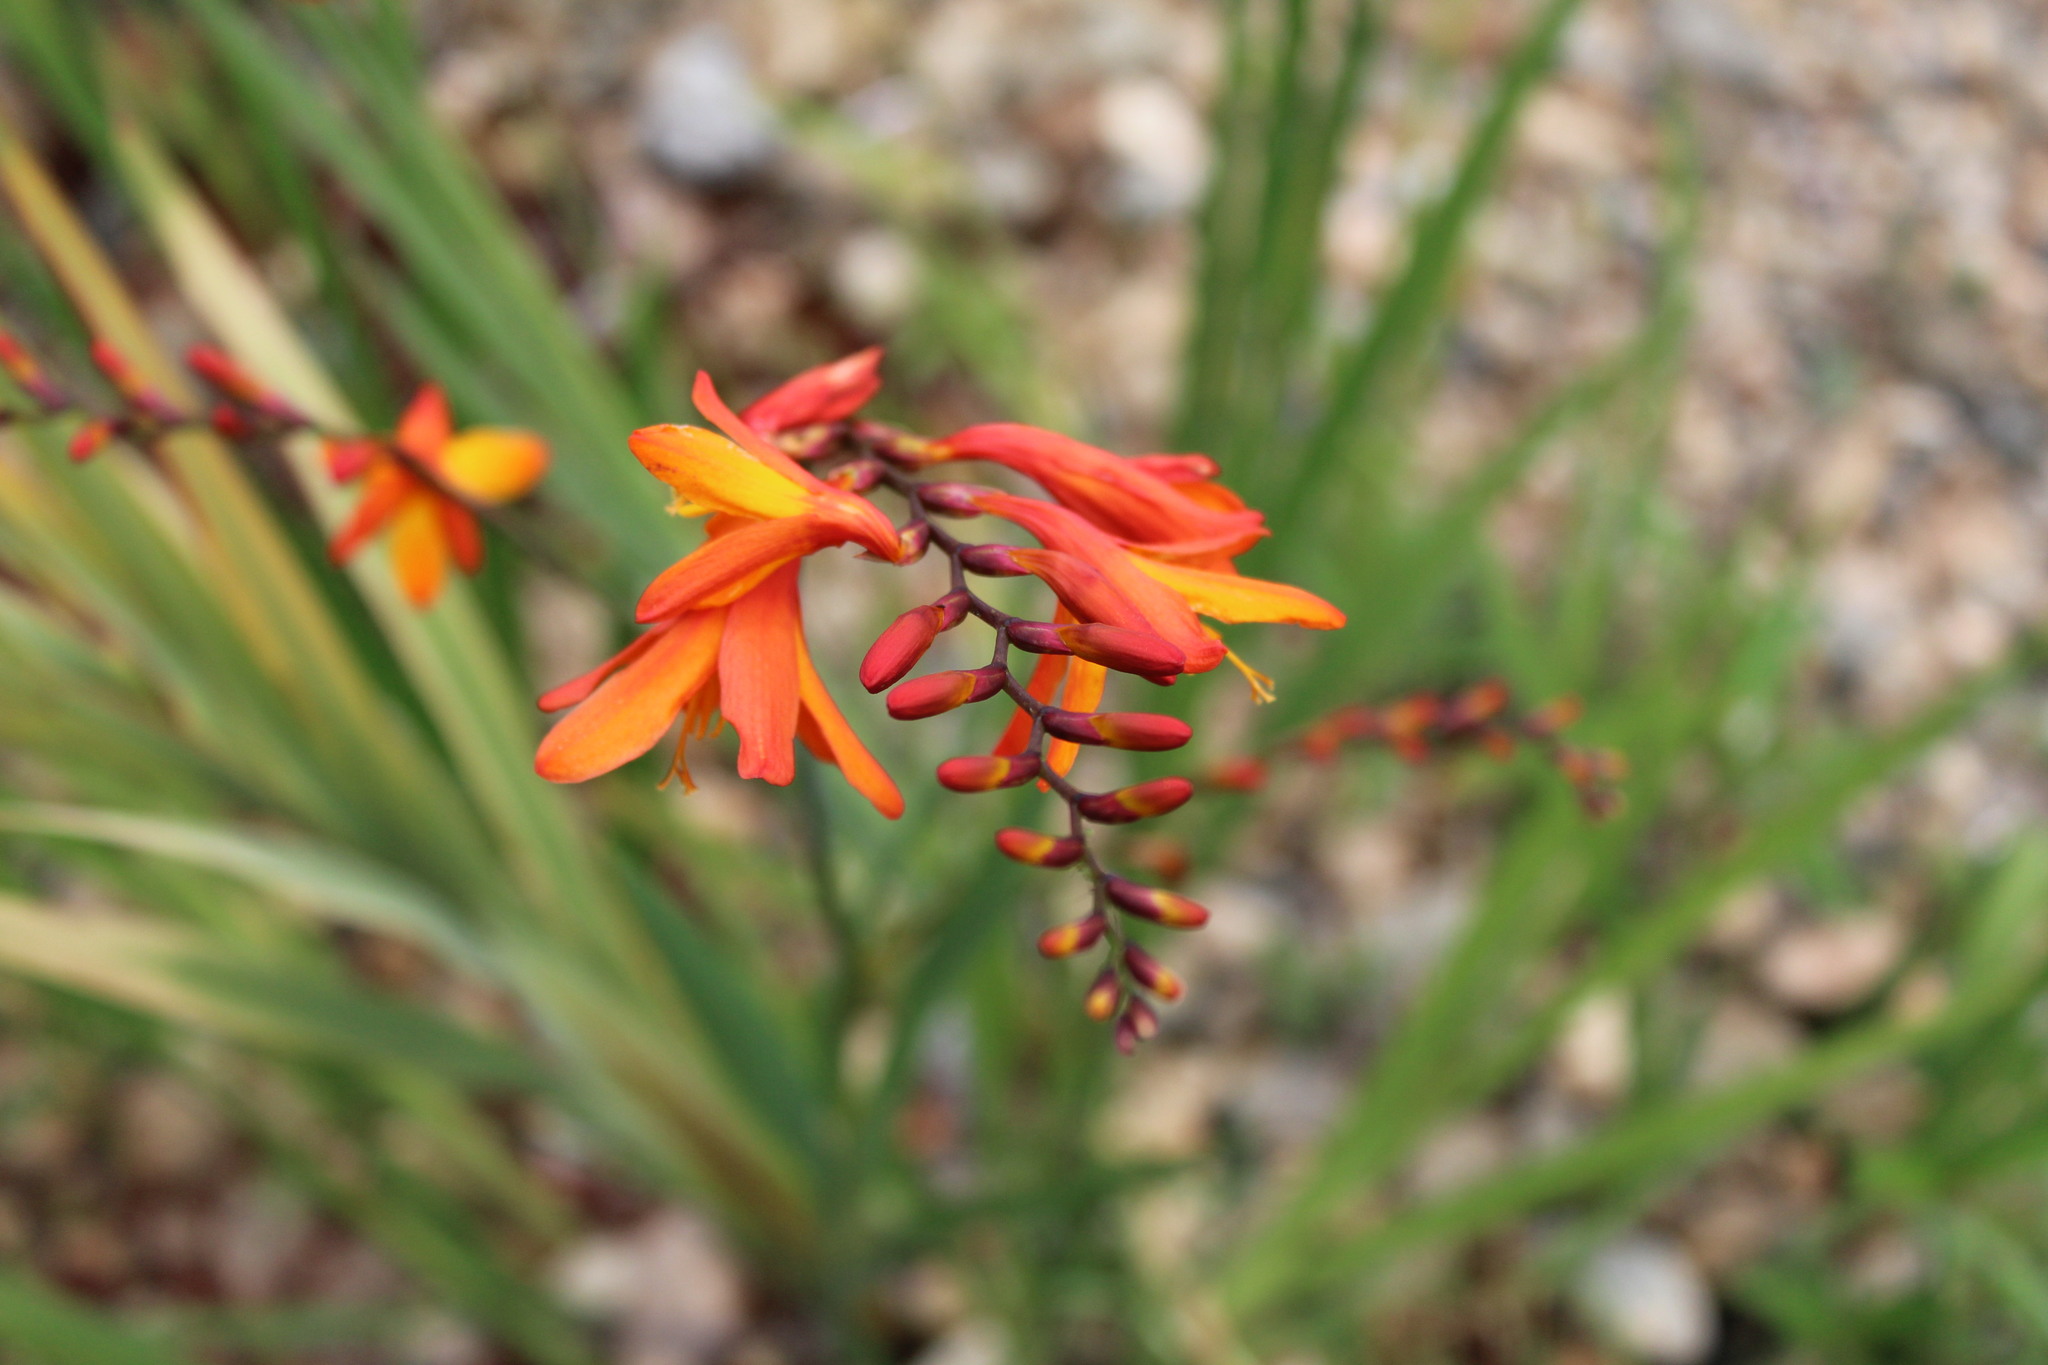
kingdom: Plantae
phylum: Tracheophyta
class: Liliopsida
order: Asparagales
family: Iridaceae
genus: Crocosmia
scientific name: Crocosmia crocosmiiflora
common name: Montbretia
